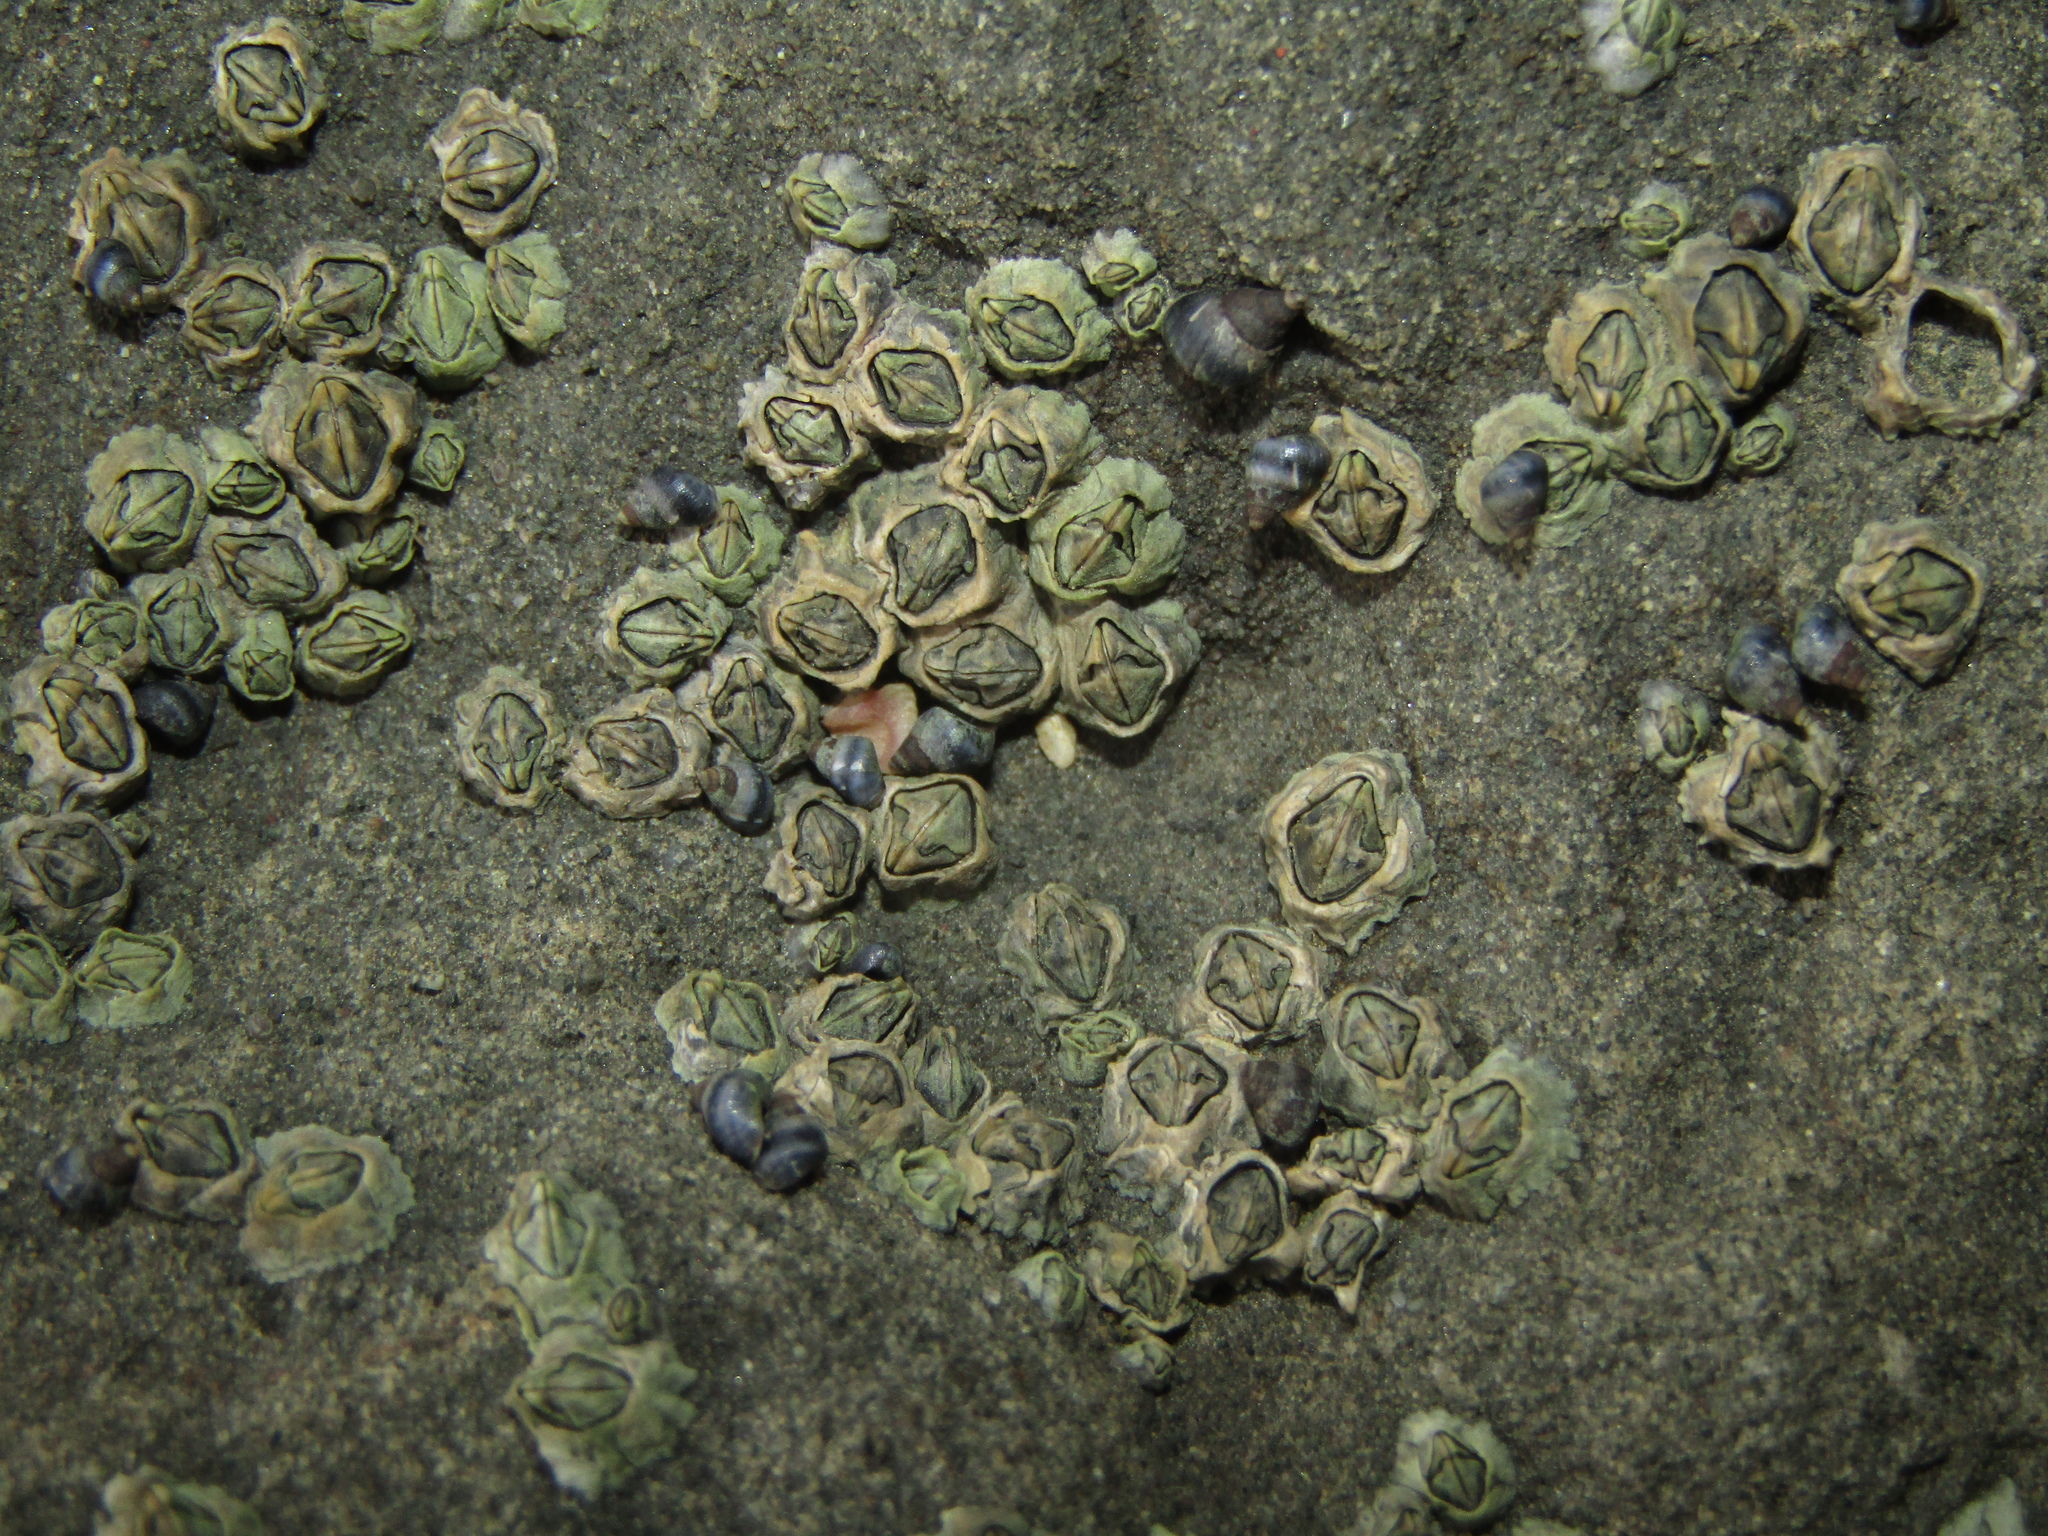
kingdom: Animalia
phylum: Arthropoda
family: Elminiidae
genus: Austrominius
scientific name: Austrominius modestus
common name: Australasian barnacle
